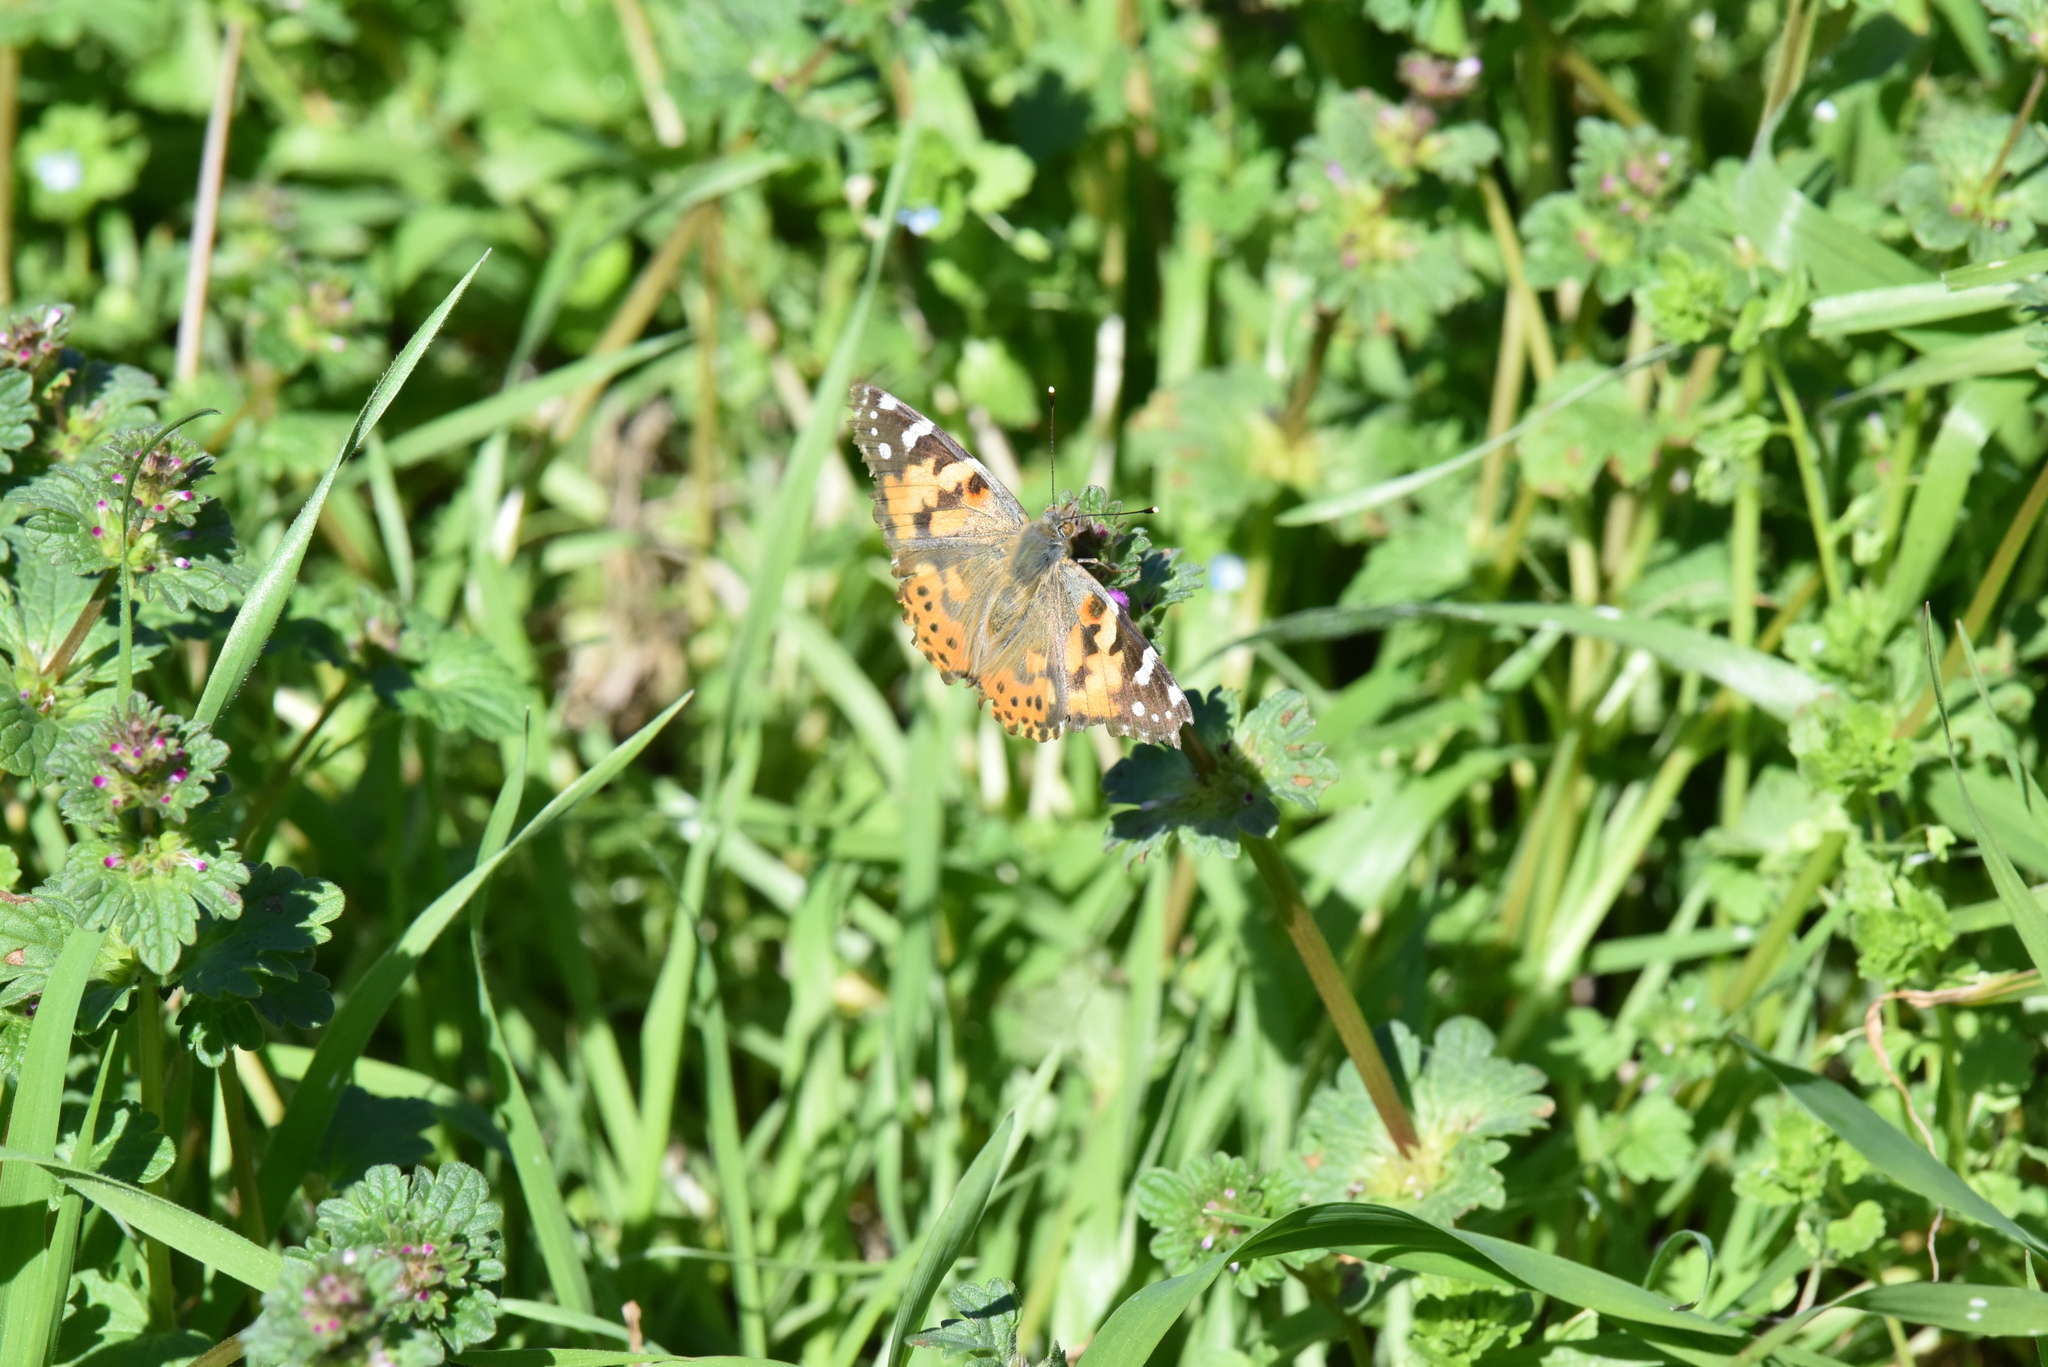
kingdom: Animalia
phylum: Arthropoda
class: Insecta
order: Lepidoptera
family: Nymphalidae
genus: Vanessa
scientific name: Vanessa cardui
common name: Painted lady
